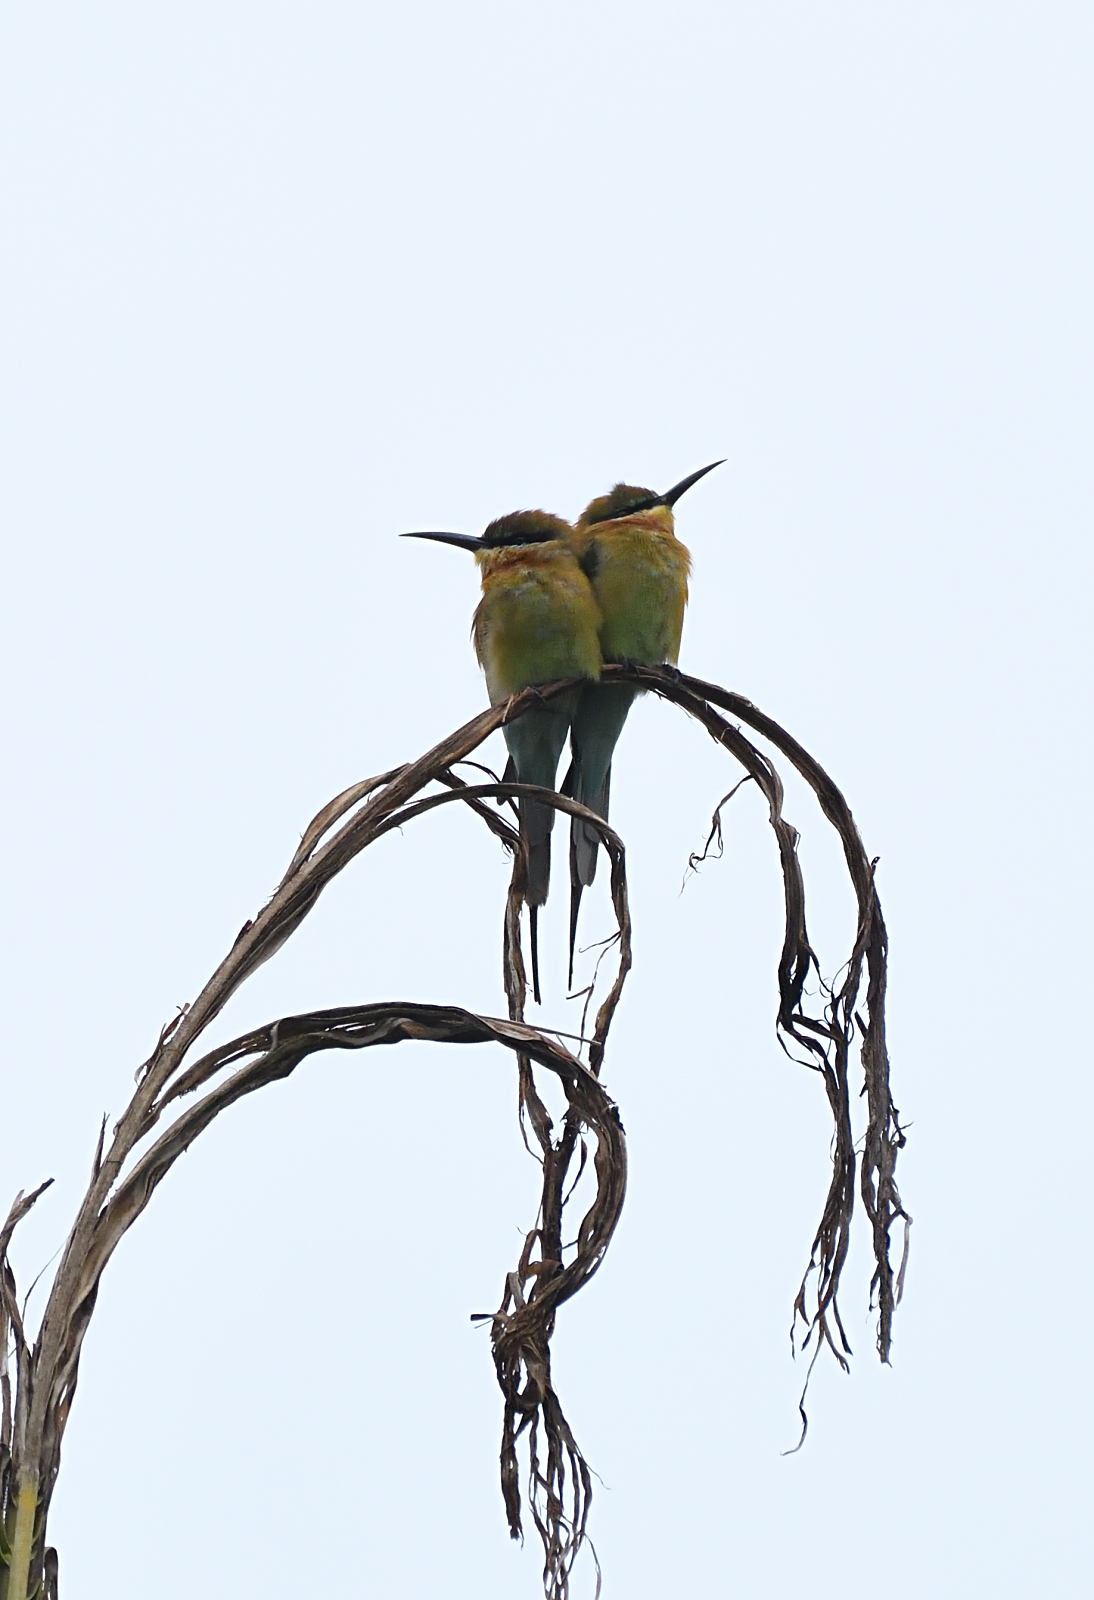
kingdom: Animalia
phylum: Chordata
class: Aves
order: Coraciiformes
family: Meropidae
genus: Merops
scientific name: Merops philippinus
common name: Blue-tailed bee-eater
